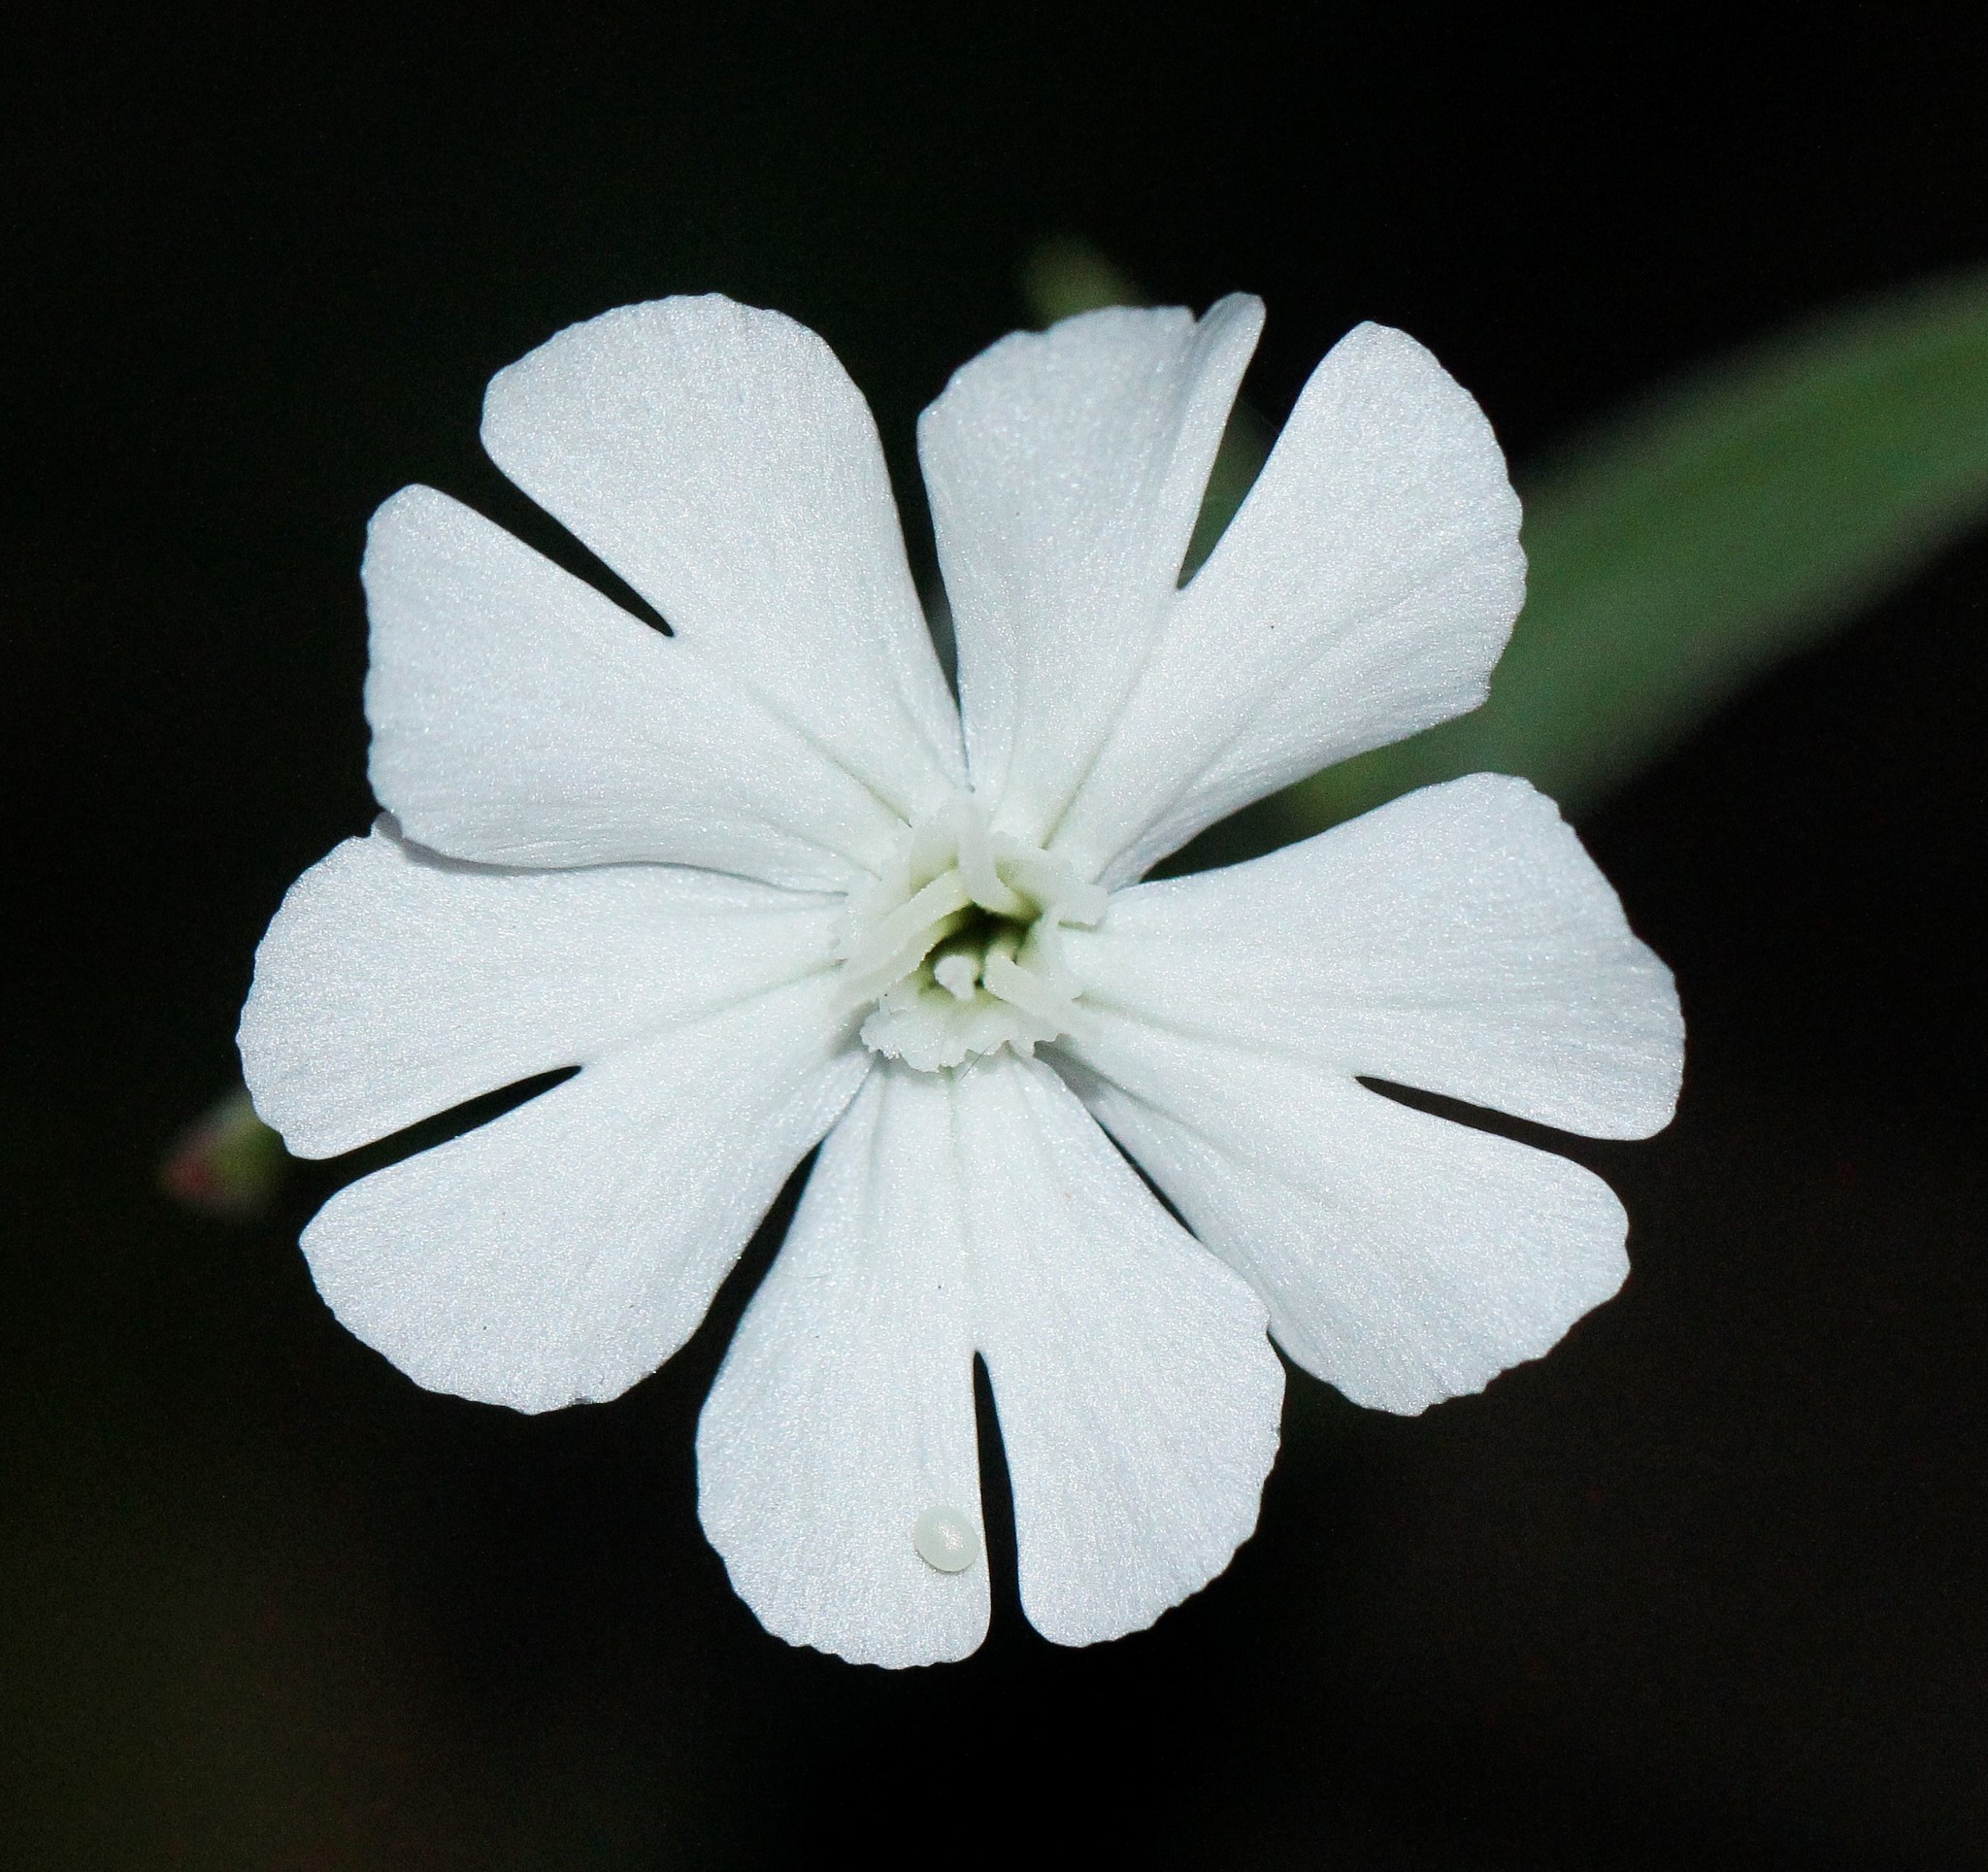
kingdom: Plantae
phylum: Tracheophyta
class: Magnoliopsida
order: Caryophyllales
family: Caryophyllaceae
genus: Silene
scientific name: Silene latifolia
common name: White campion
